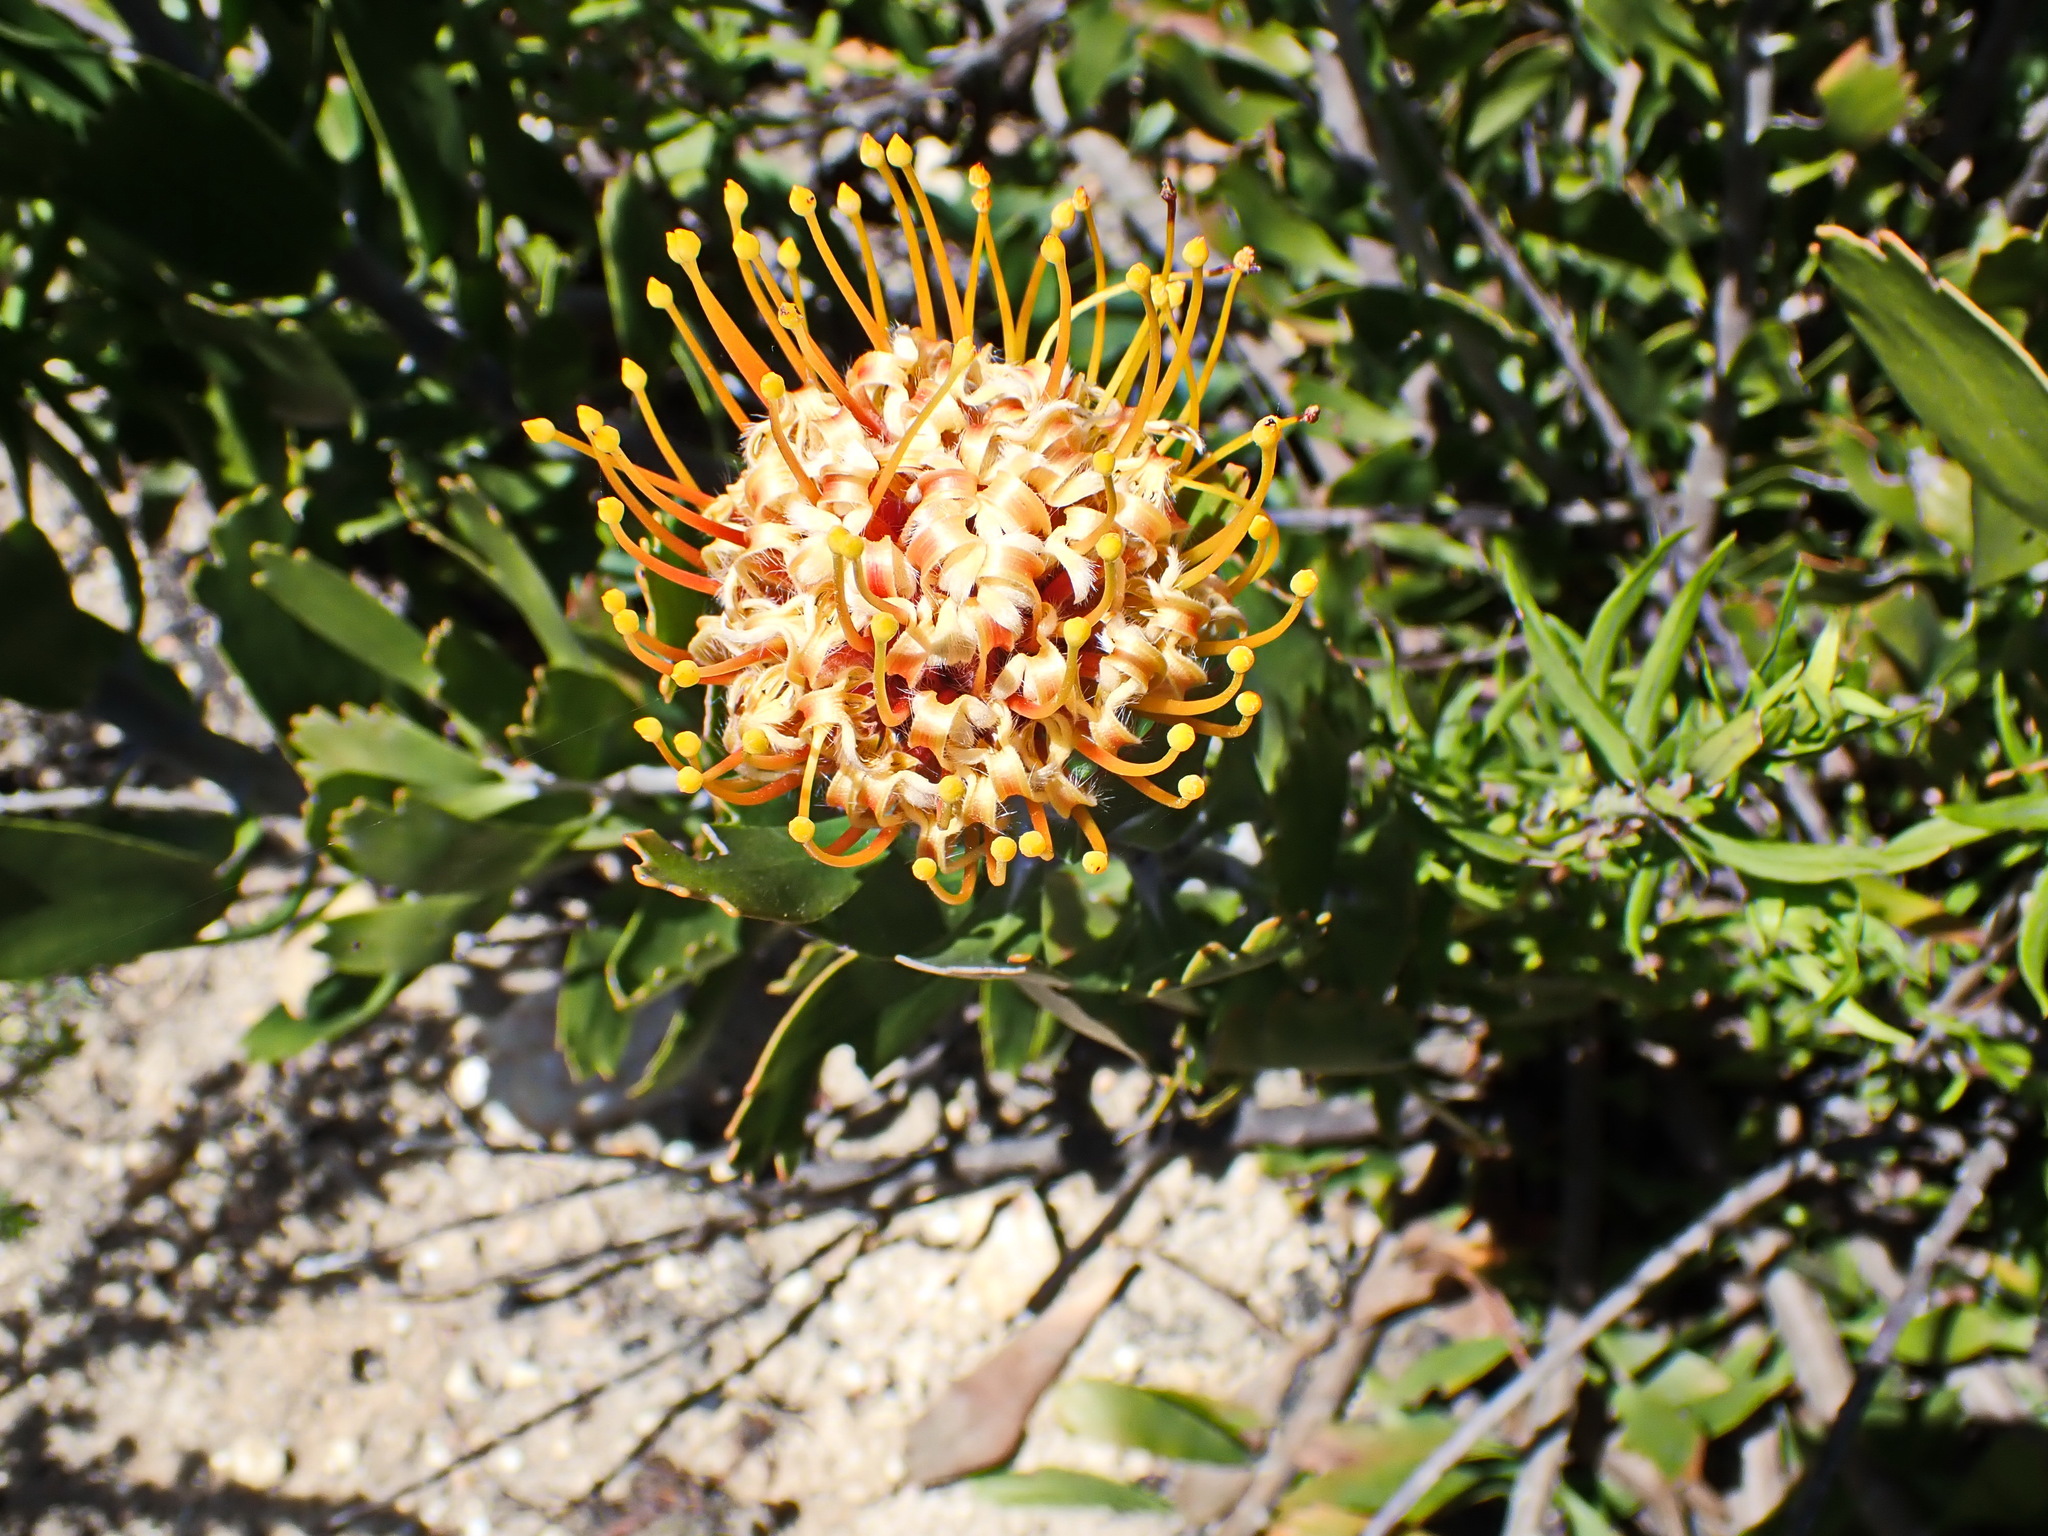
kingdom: Plantae
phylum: Tracheophyta
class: Magnoliopsida
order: Proteales
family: Proteaceae
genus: Leucospermum
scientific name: Leucospermum cuneiforme
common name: Common pincushion
